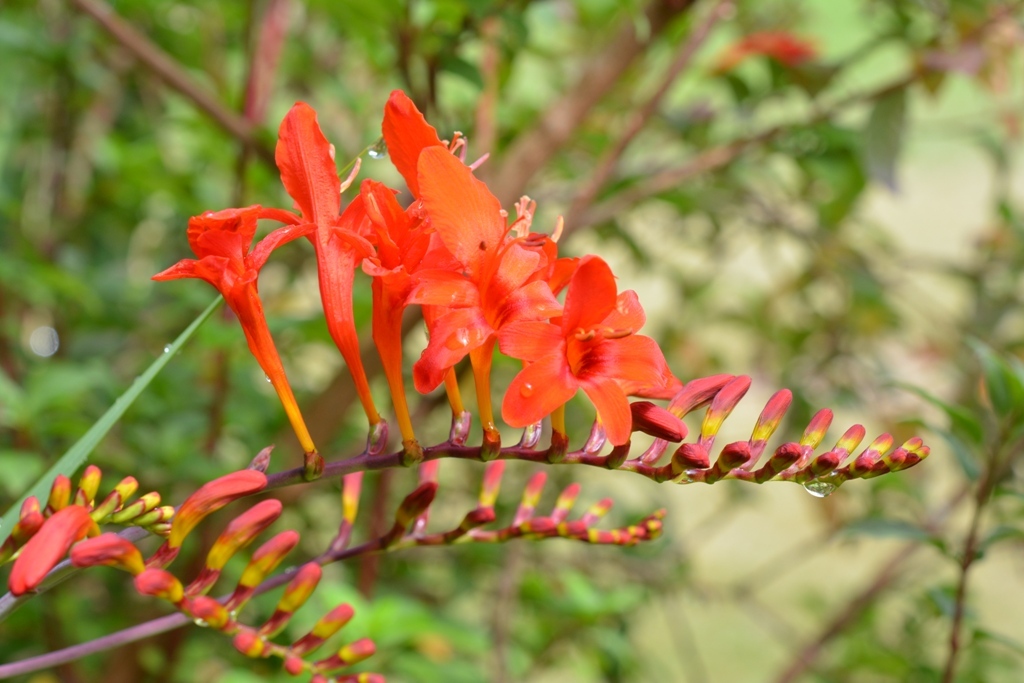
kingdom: Plantae
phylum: Tracheophyta
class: Liliopsida
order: Asparagales
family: Iridaceae
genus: Crocosmia
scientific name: Crocosmia crocosmiiflora
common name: Montbretia
